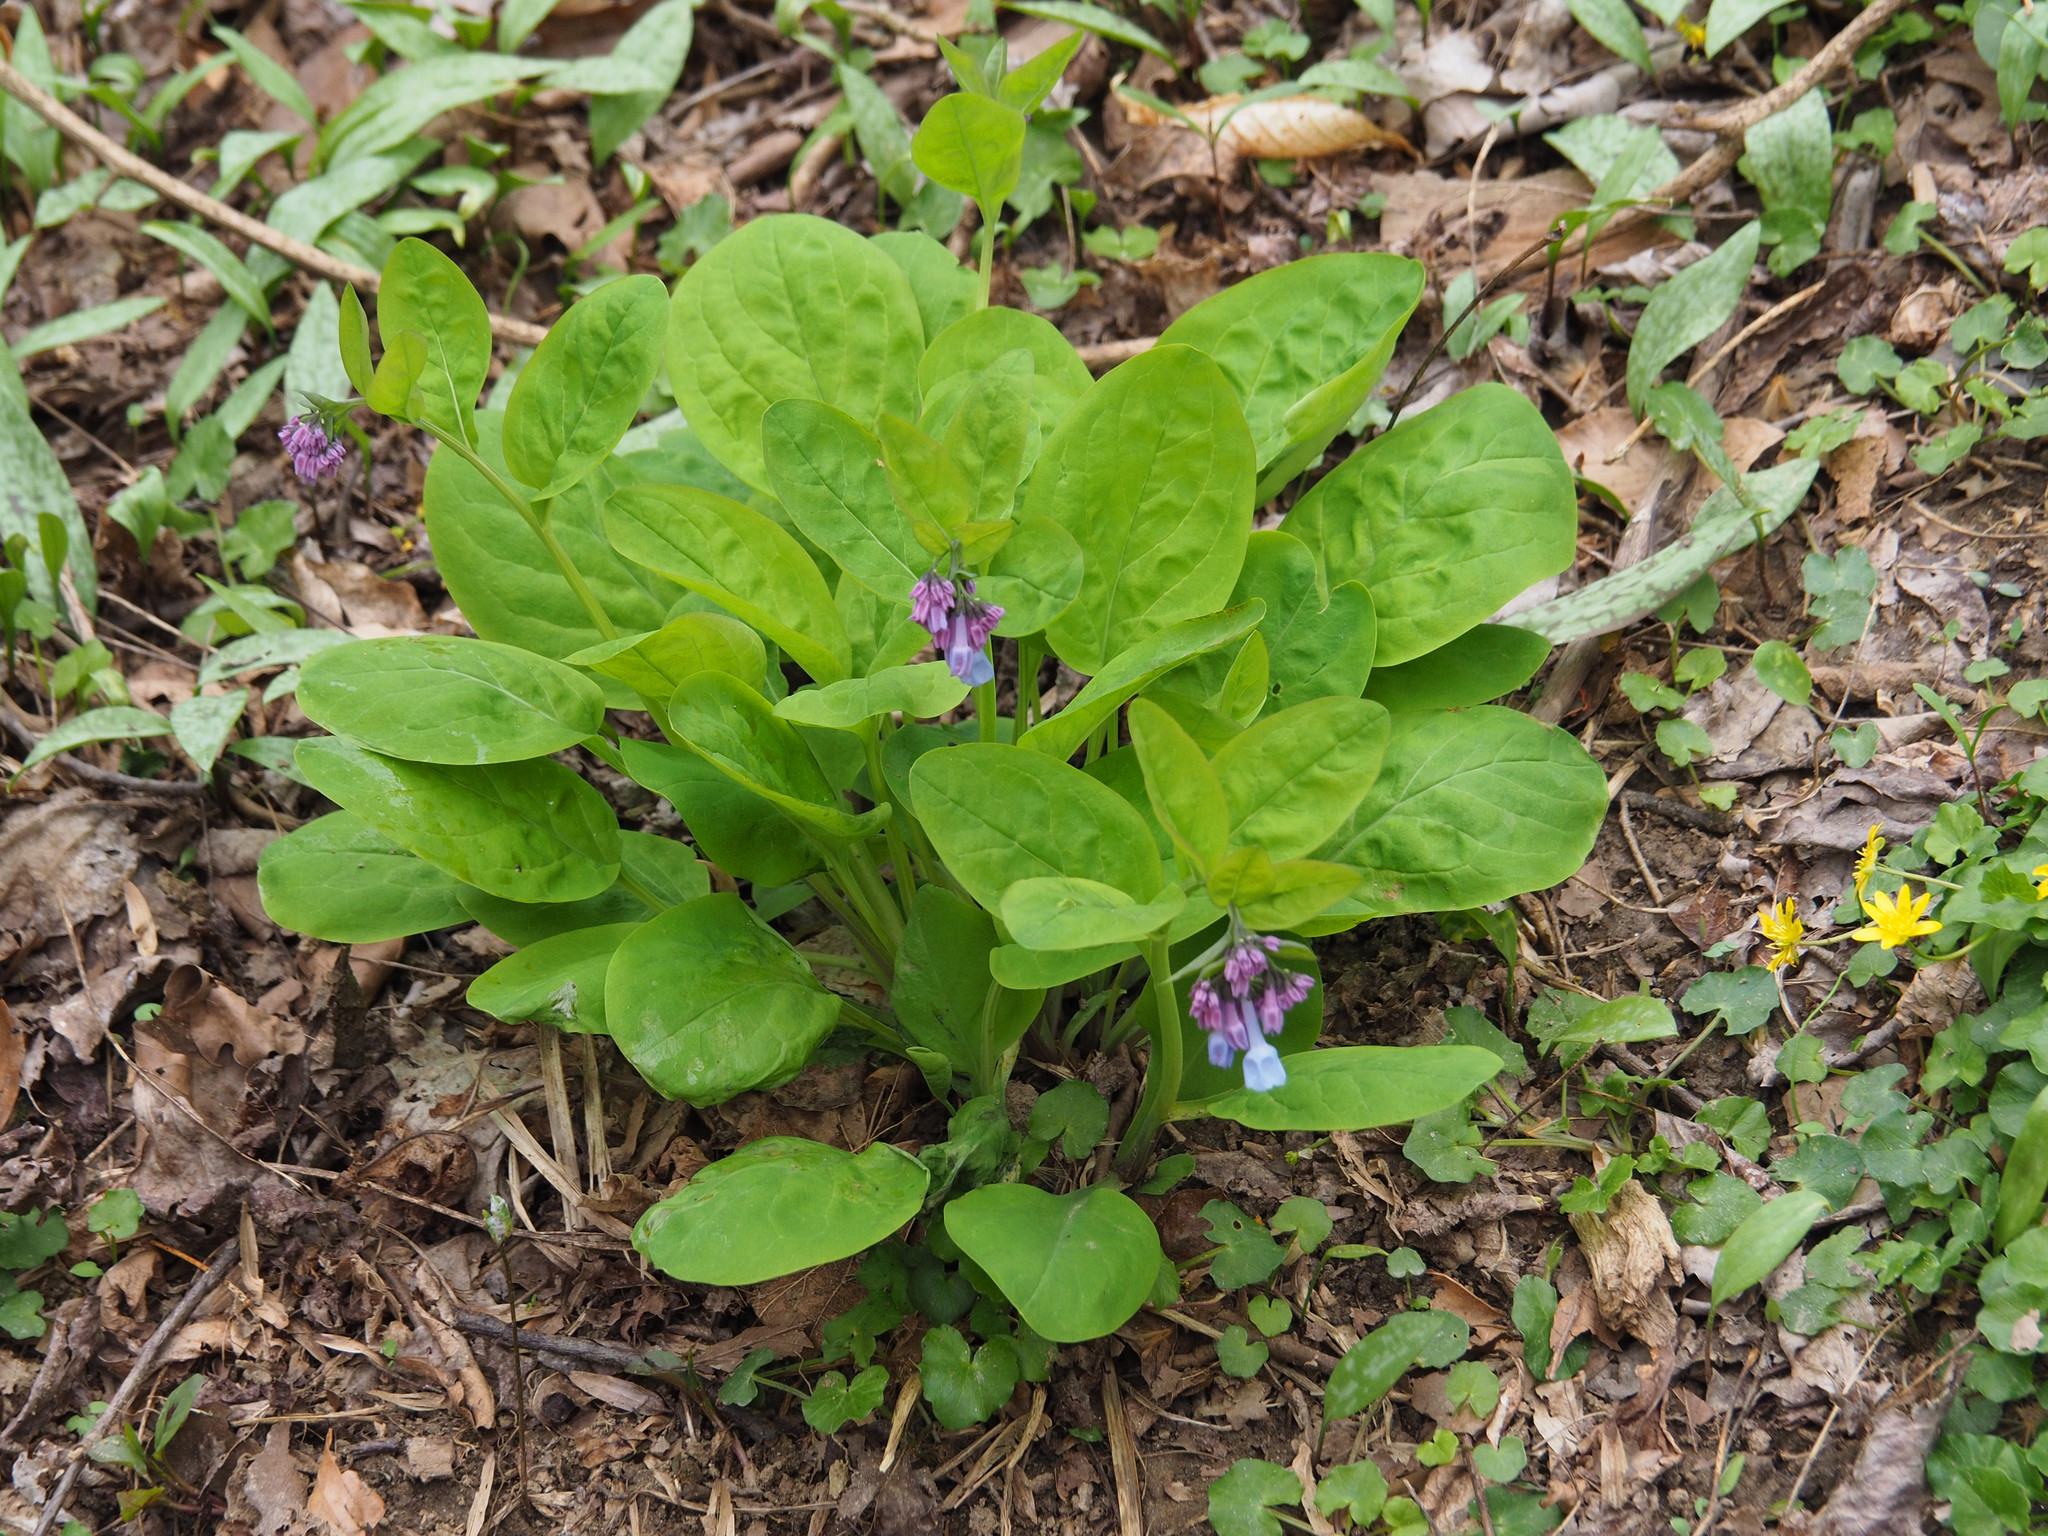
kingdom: Plantae
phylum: Tracheophyta
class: Magnoliopsida
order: Boraginales
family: Boraginaceae
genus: Mertensia
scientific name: Mertensia virginica
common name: Virginia bluebells
